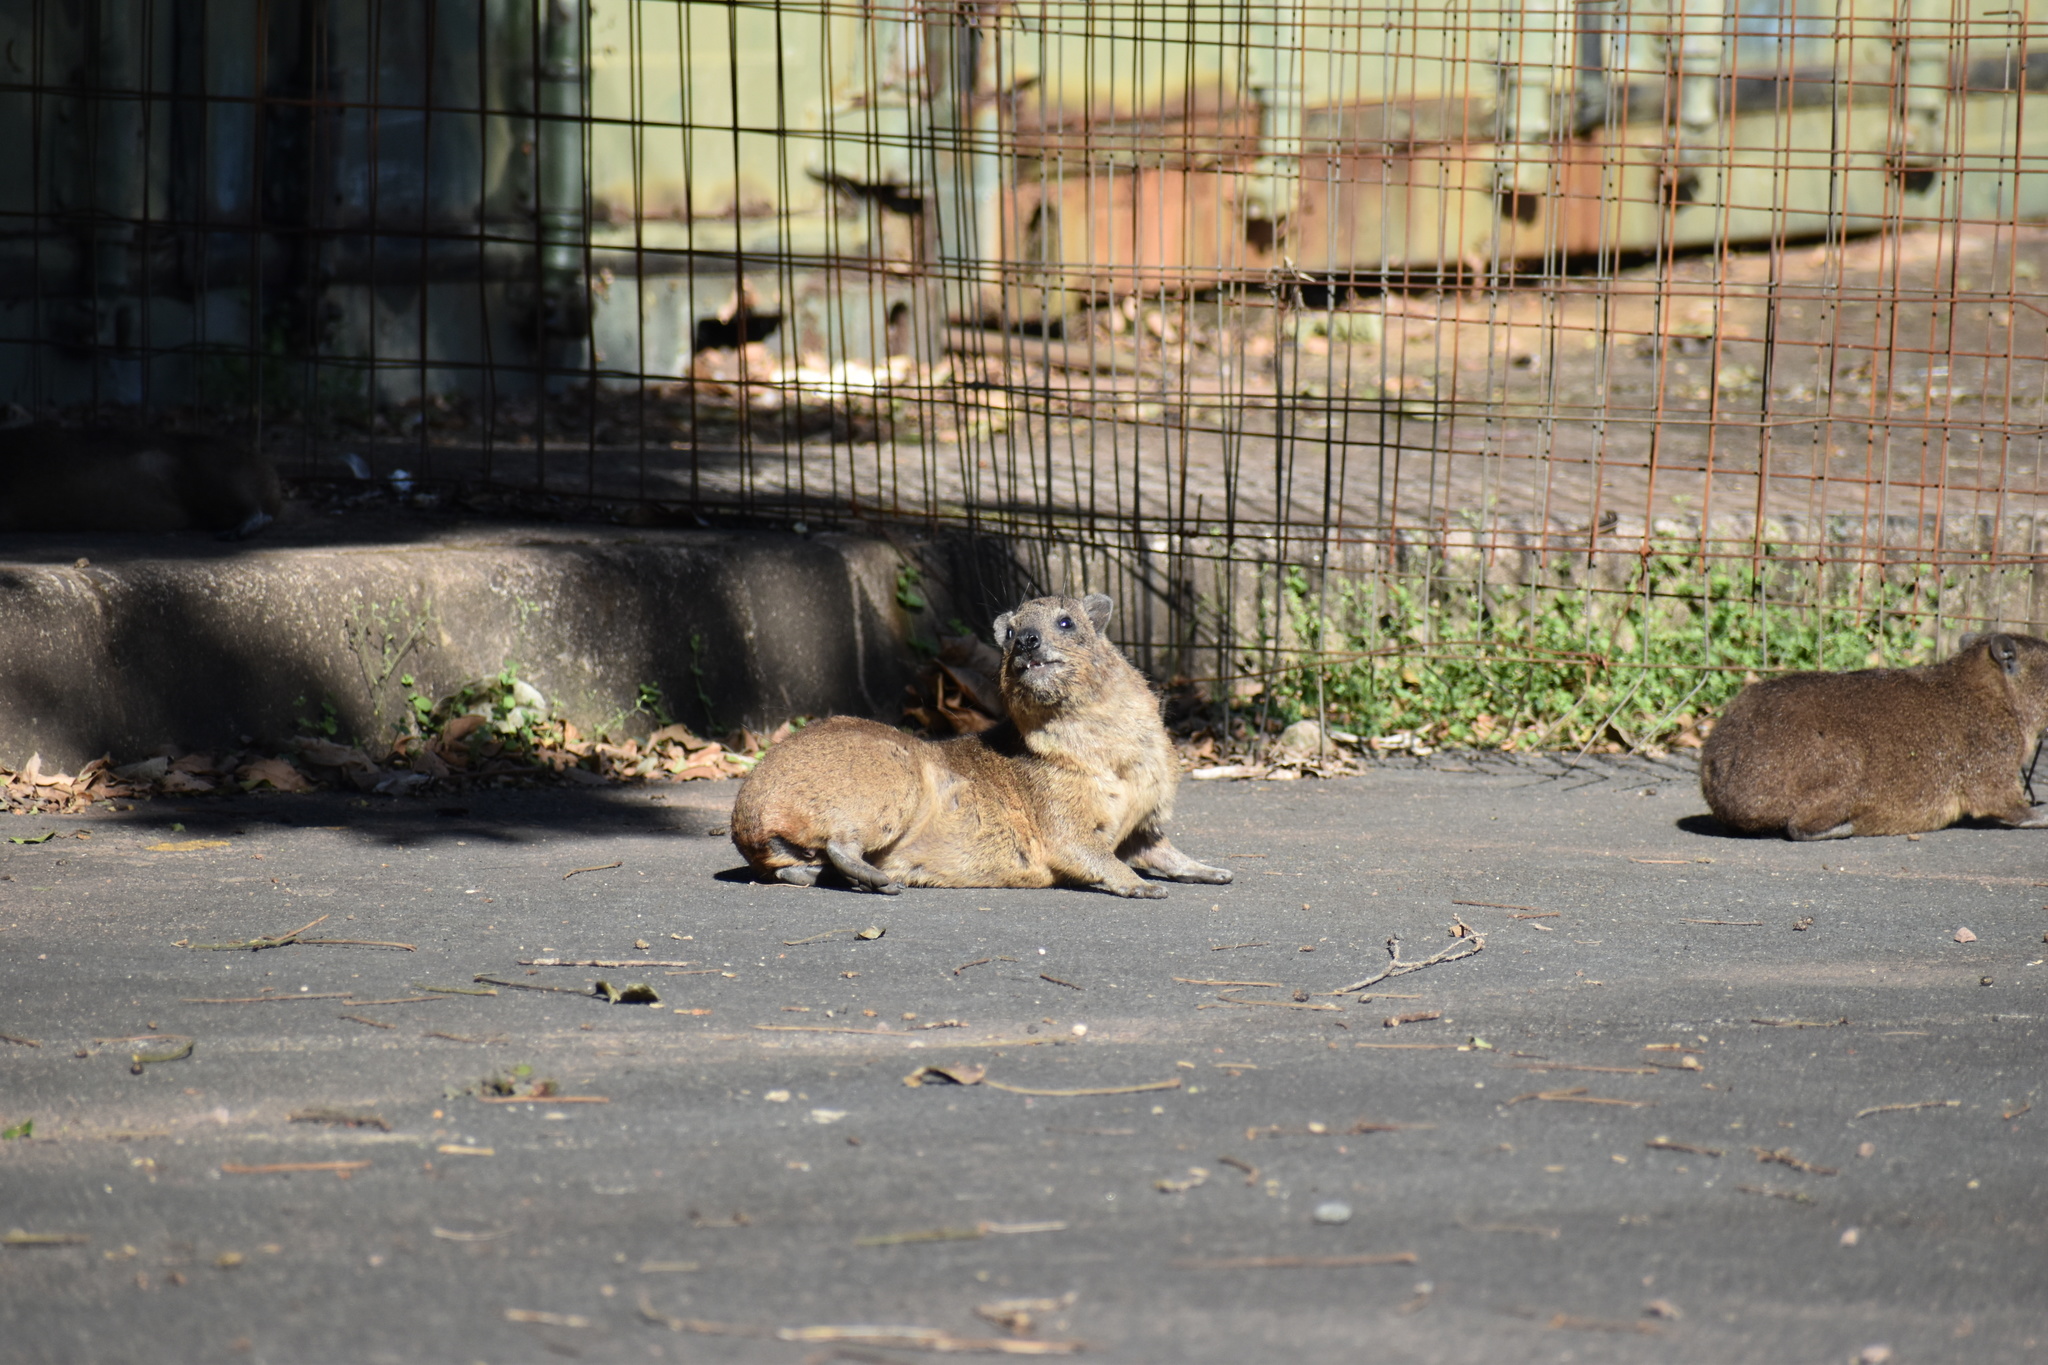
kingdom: Animalia
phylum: Chordata
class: Mammalia
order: Hyracoidea
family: Procaviidae
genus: Procavia
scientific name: Procavia capensis
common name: Rock hyrax
